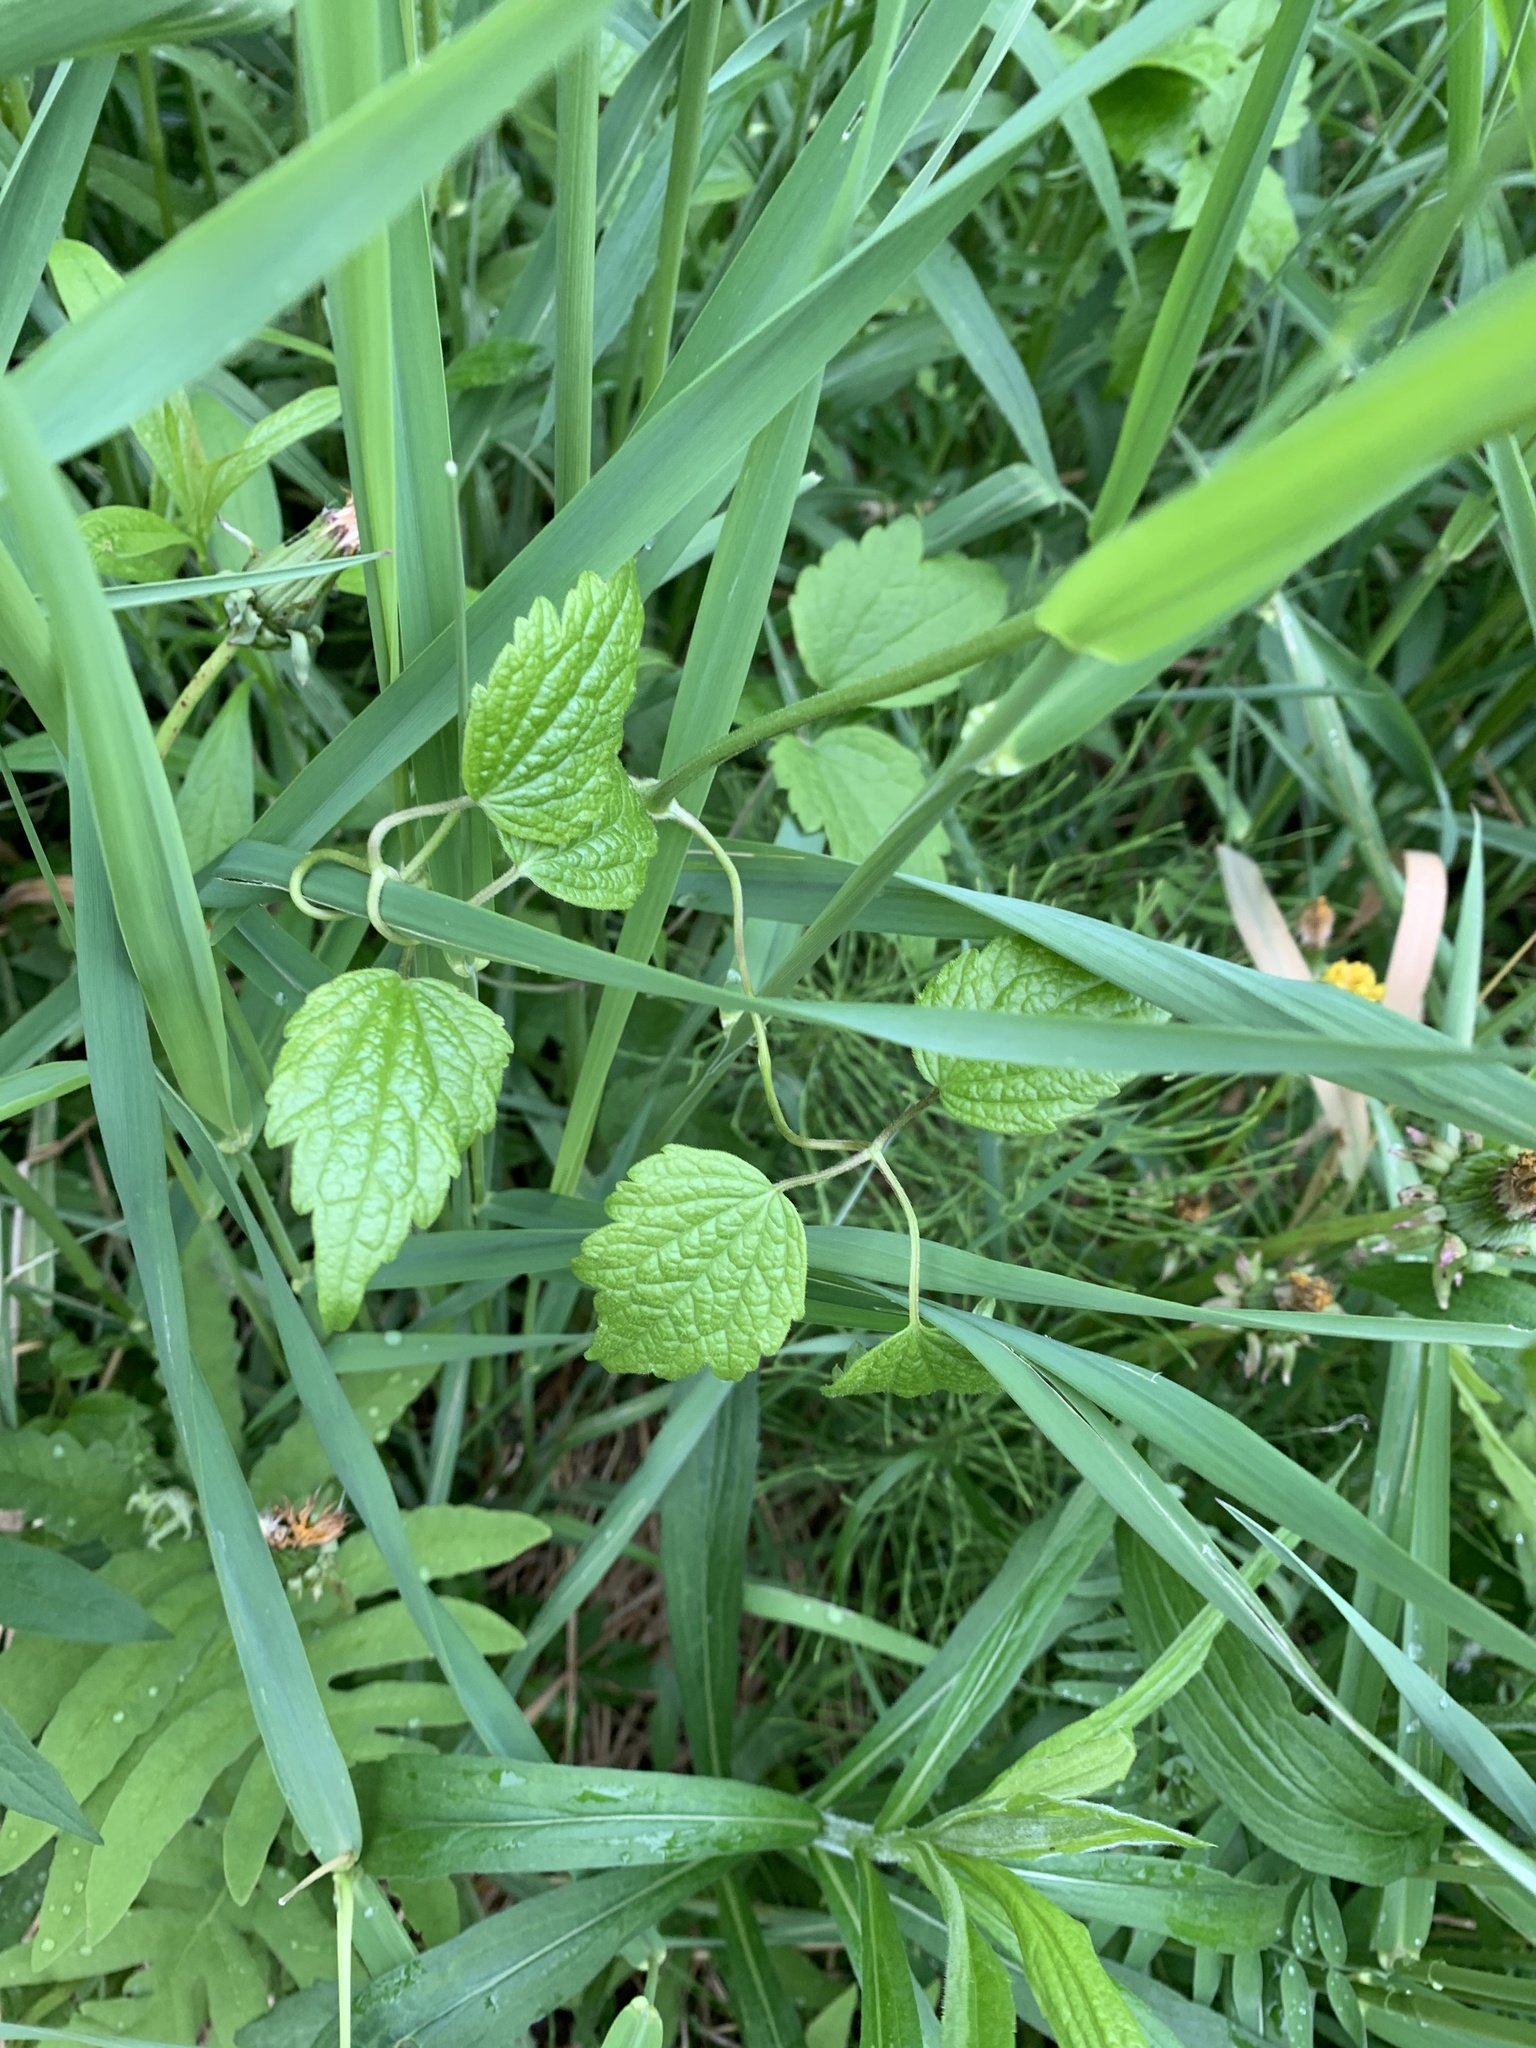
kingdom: Plantae
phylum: Tracheophyta
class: Magnoliopsida
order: Ranunculales
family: Ranunculaceae
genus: Clematis
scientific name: Clematis virginiana
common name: Virgin's-bower
